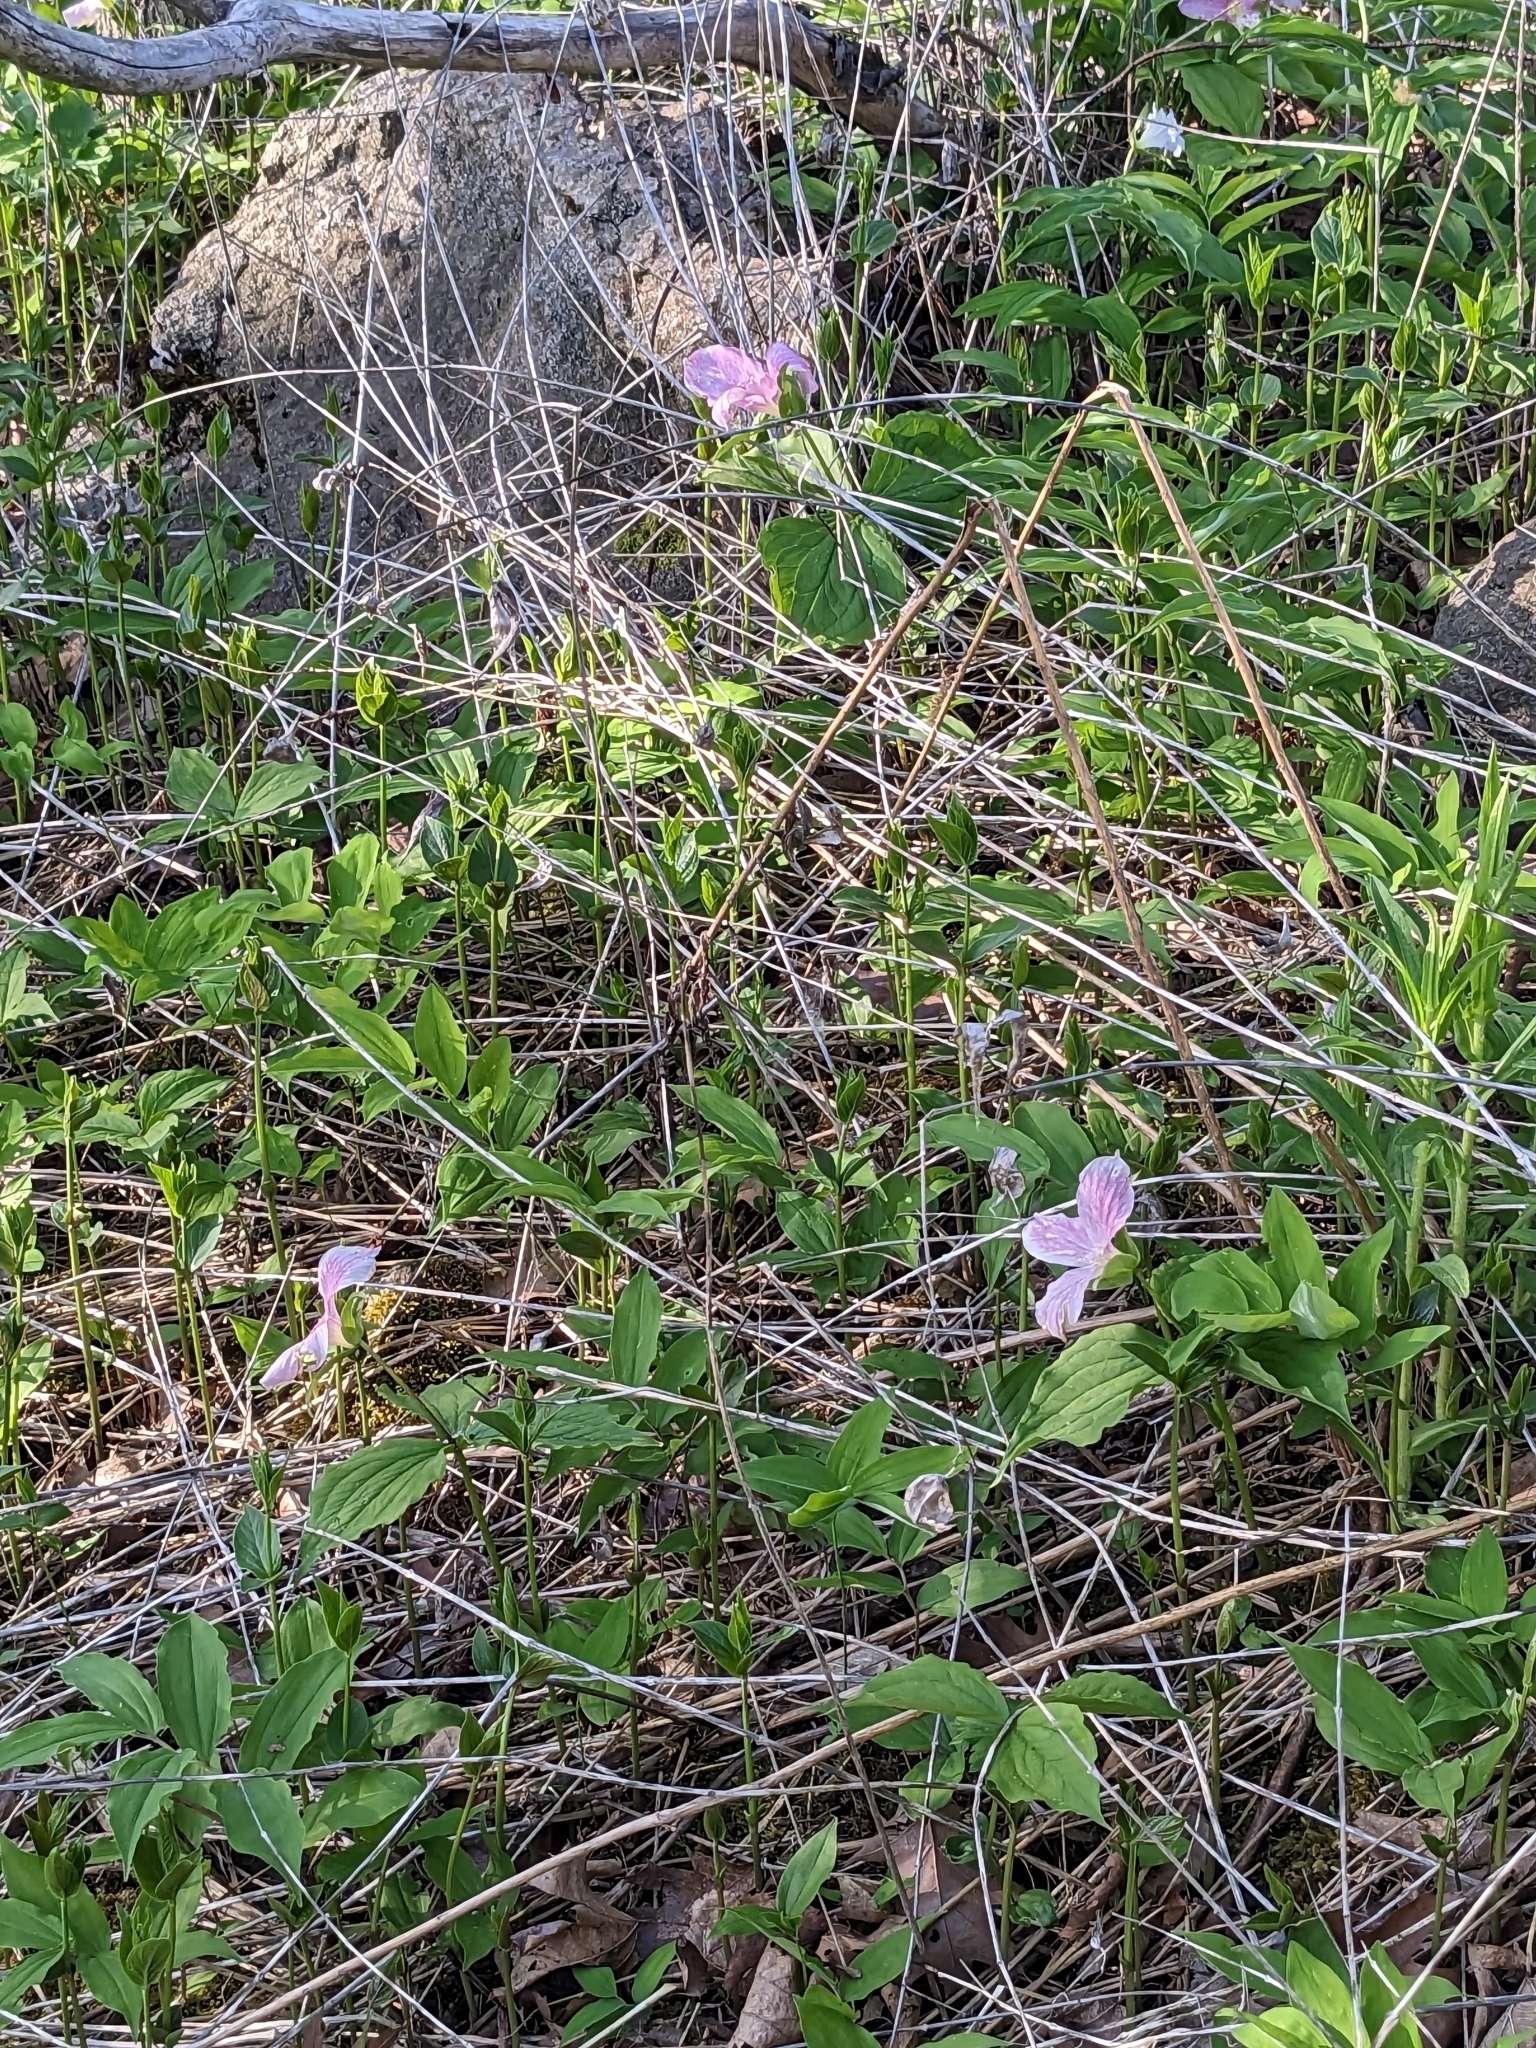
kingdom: Plantae
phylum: Tracheophyta
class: Liliopsida
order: Liliales
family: Melanthiaceae
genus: Trillium
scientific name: Trillium grandiflorum
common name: Great white trillium
